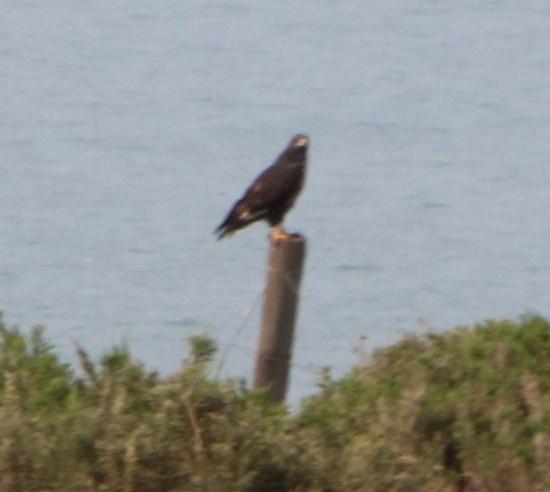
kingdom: Animalia
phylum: Chordata
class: Aves
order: Accipitriformes
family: Accipitridae
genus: Buteo
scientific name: Buteo rufofuscus
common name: Jackal buzzard
